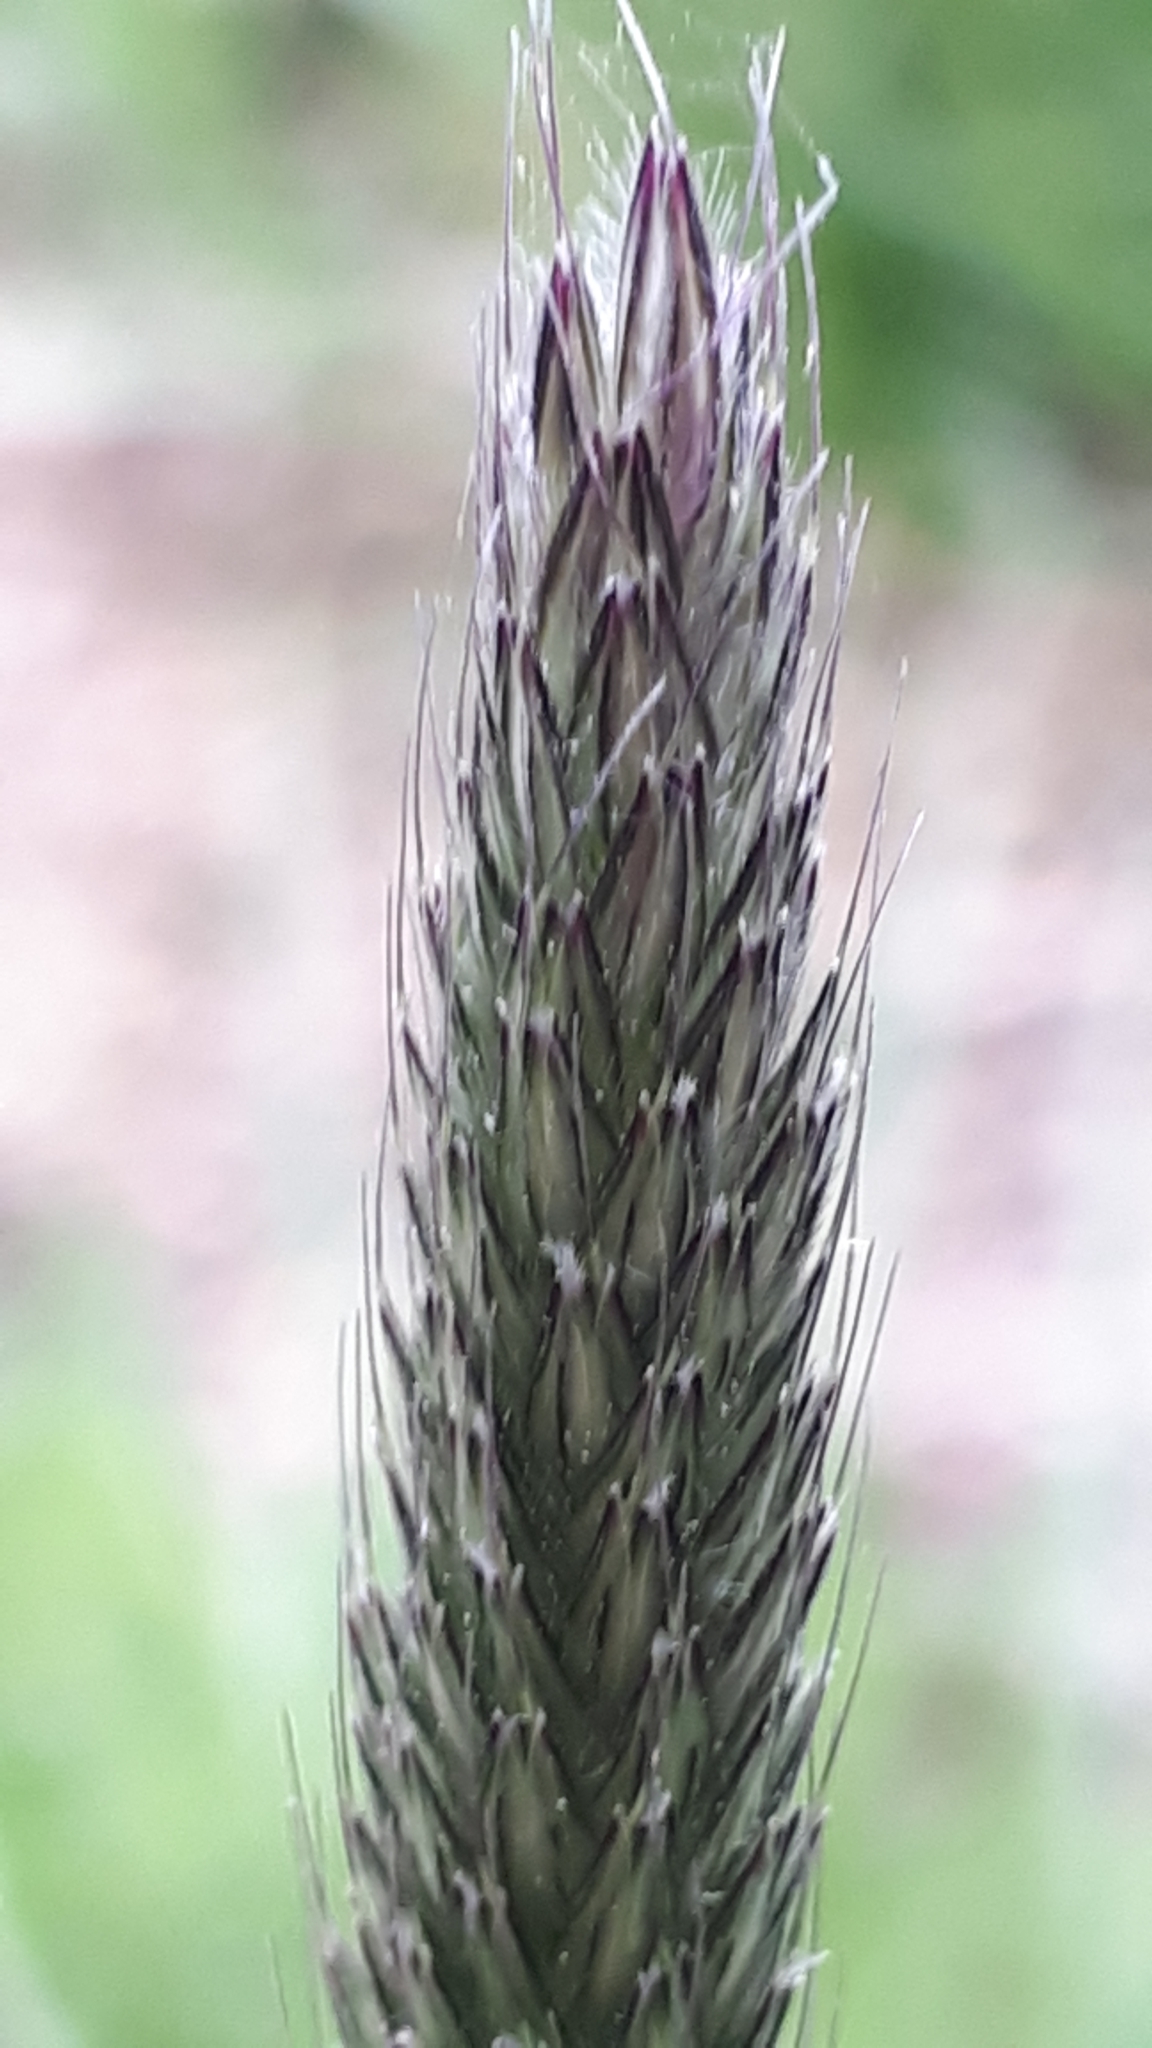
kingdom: Plantae
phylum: Tracheophyta
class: Liliopsida
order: Poales
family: Poaceae
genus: Alopecurus
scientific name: Alopecurus pratensis
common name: Meadow foxtail
